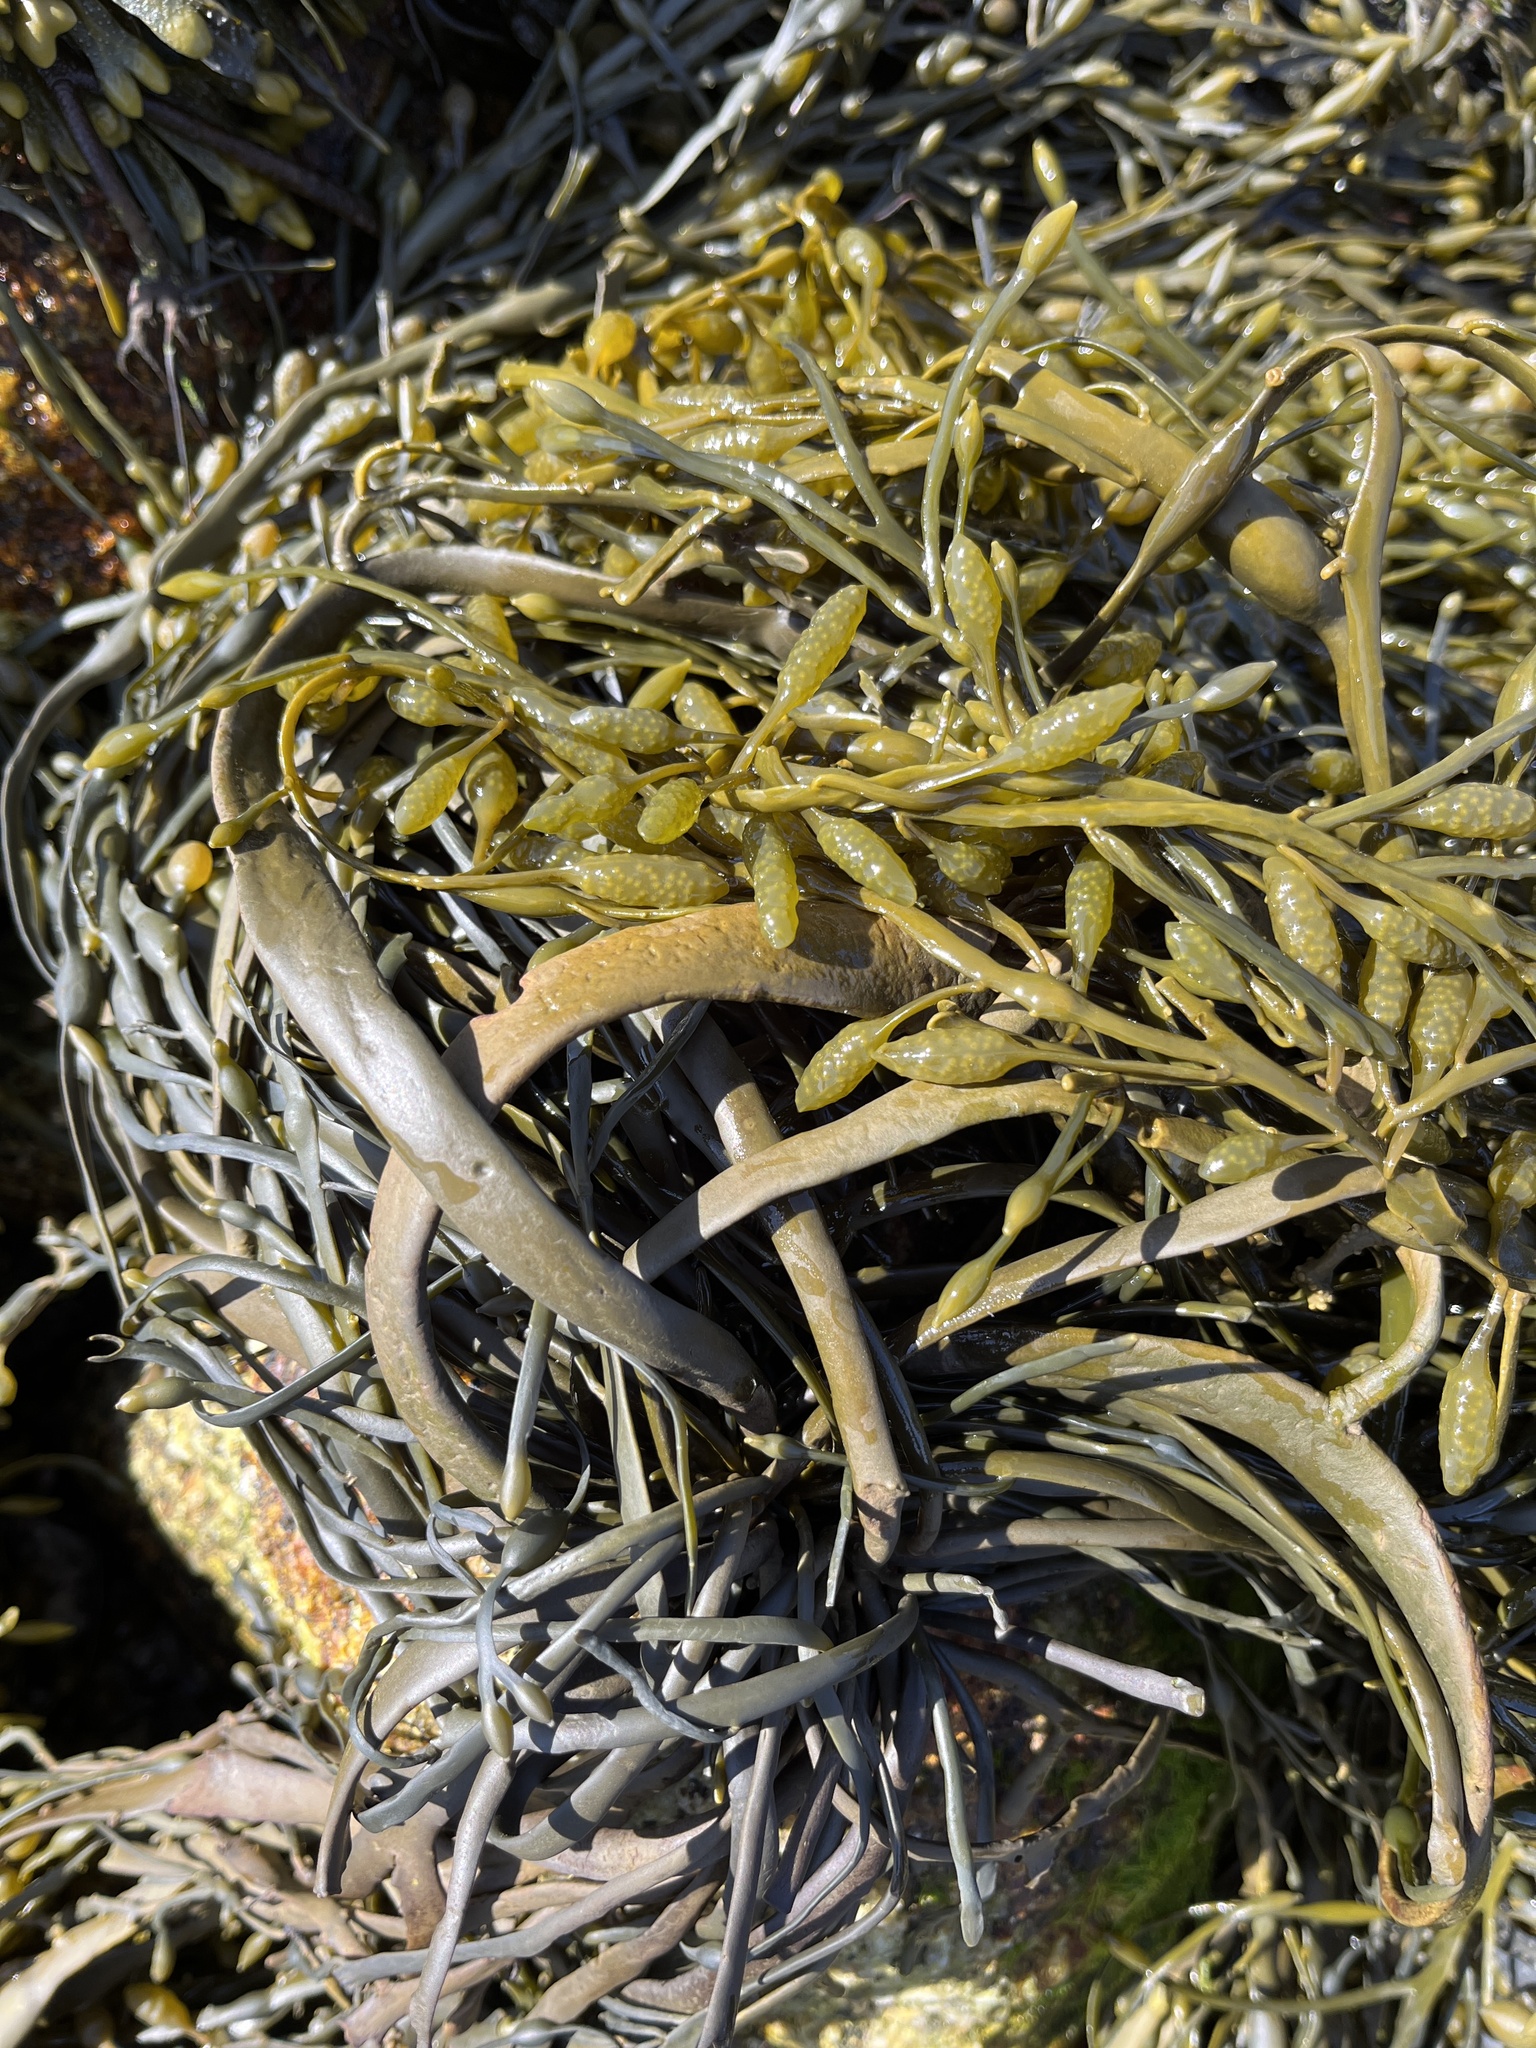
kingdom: Chromista
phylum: Ochrophyta
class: Phaeophyceae
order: Fucales
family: Fucaceae
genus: Ascophyllum
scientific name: Ascophyllum nodosum
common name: Knotted wrack
